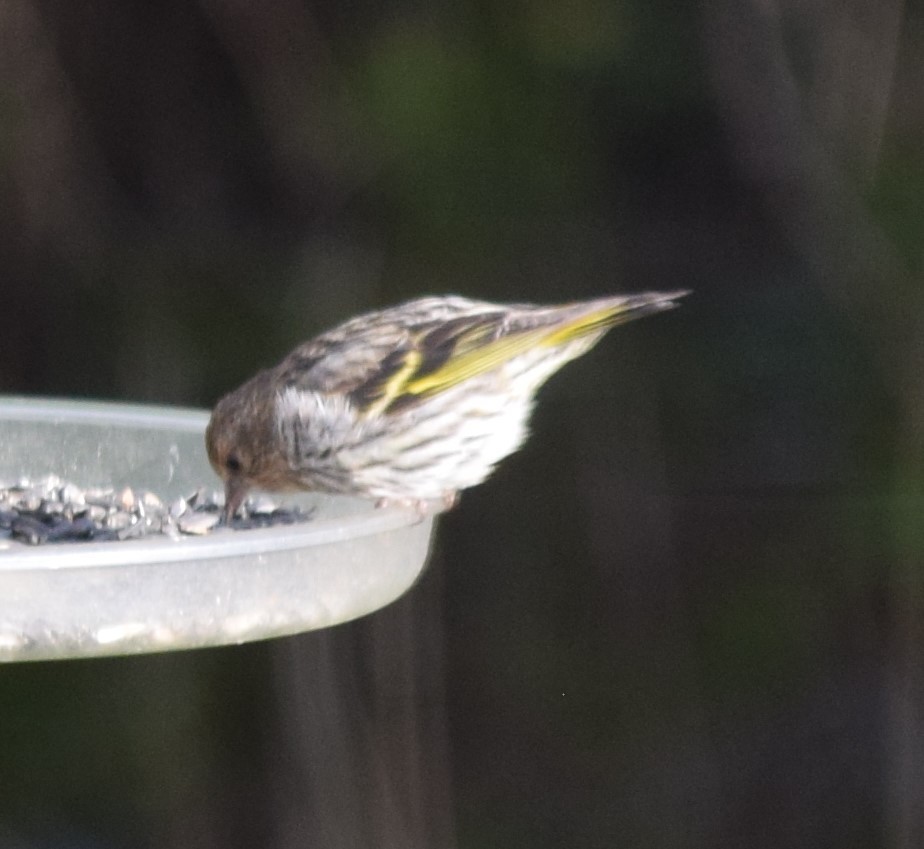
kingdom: Animalia
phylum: Chordata
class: Aves
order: Passeriformes
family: Fringillidae
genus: Spinus
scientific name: Spinus pinus
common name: Pine siskin
